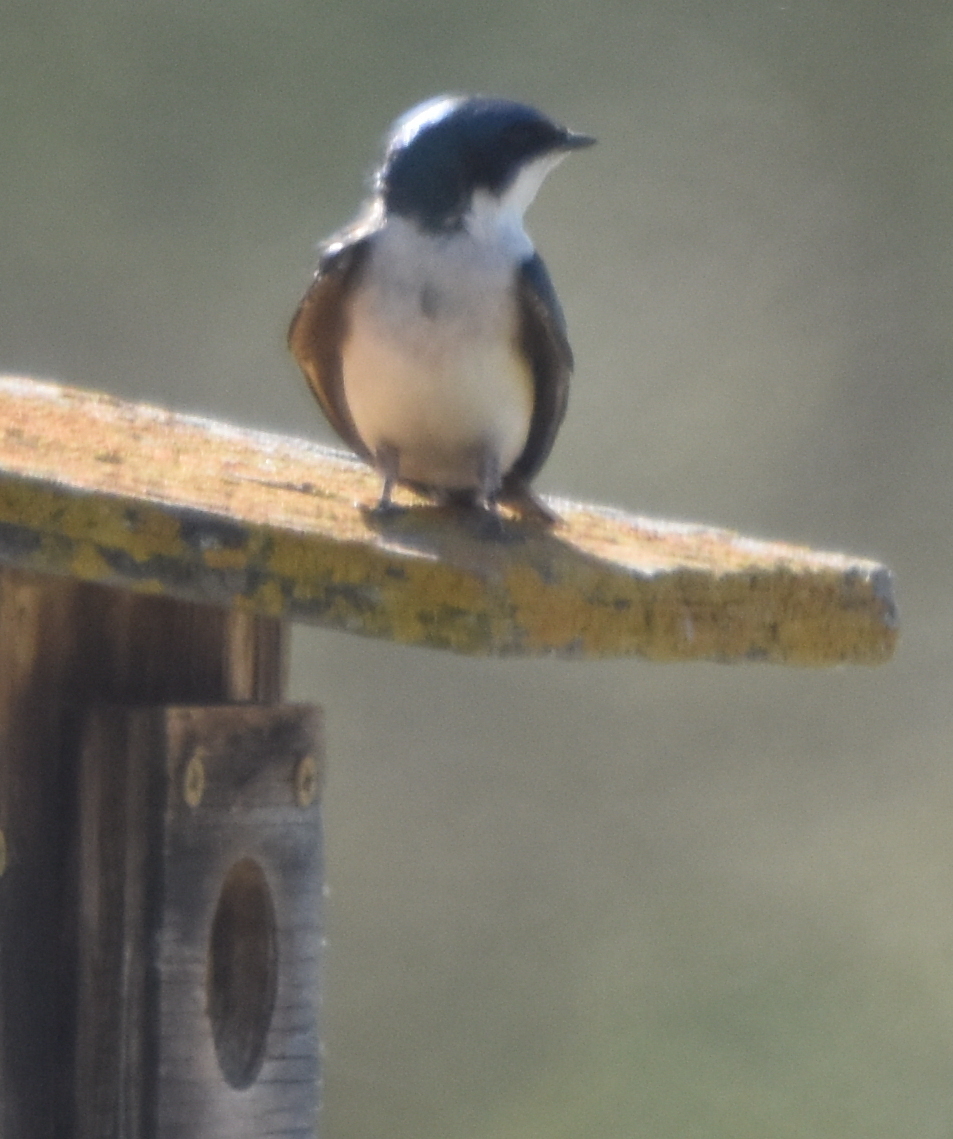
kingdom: Animalia
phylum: Chordata
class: Aves
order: Passeriformes
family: Hirundinidae
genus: Tachycineta
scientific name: Tachycineta bicolor
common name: Tree swallow
